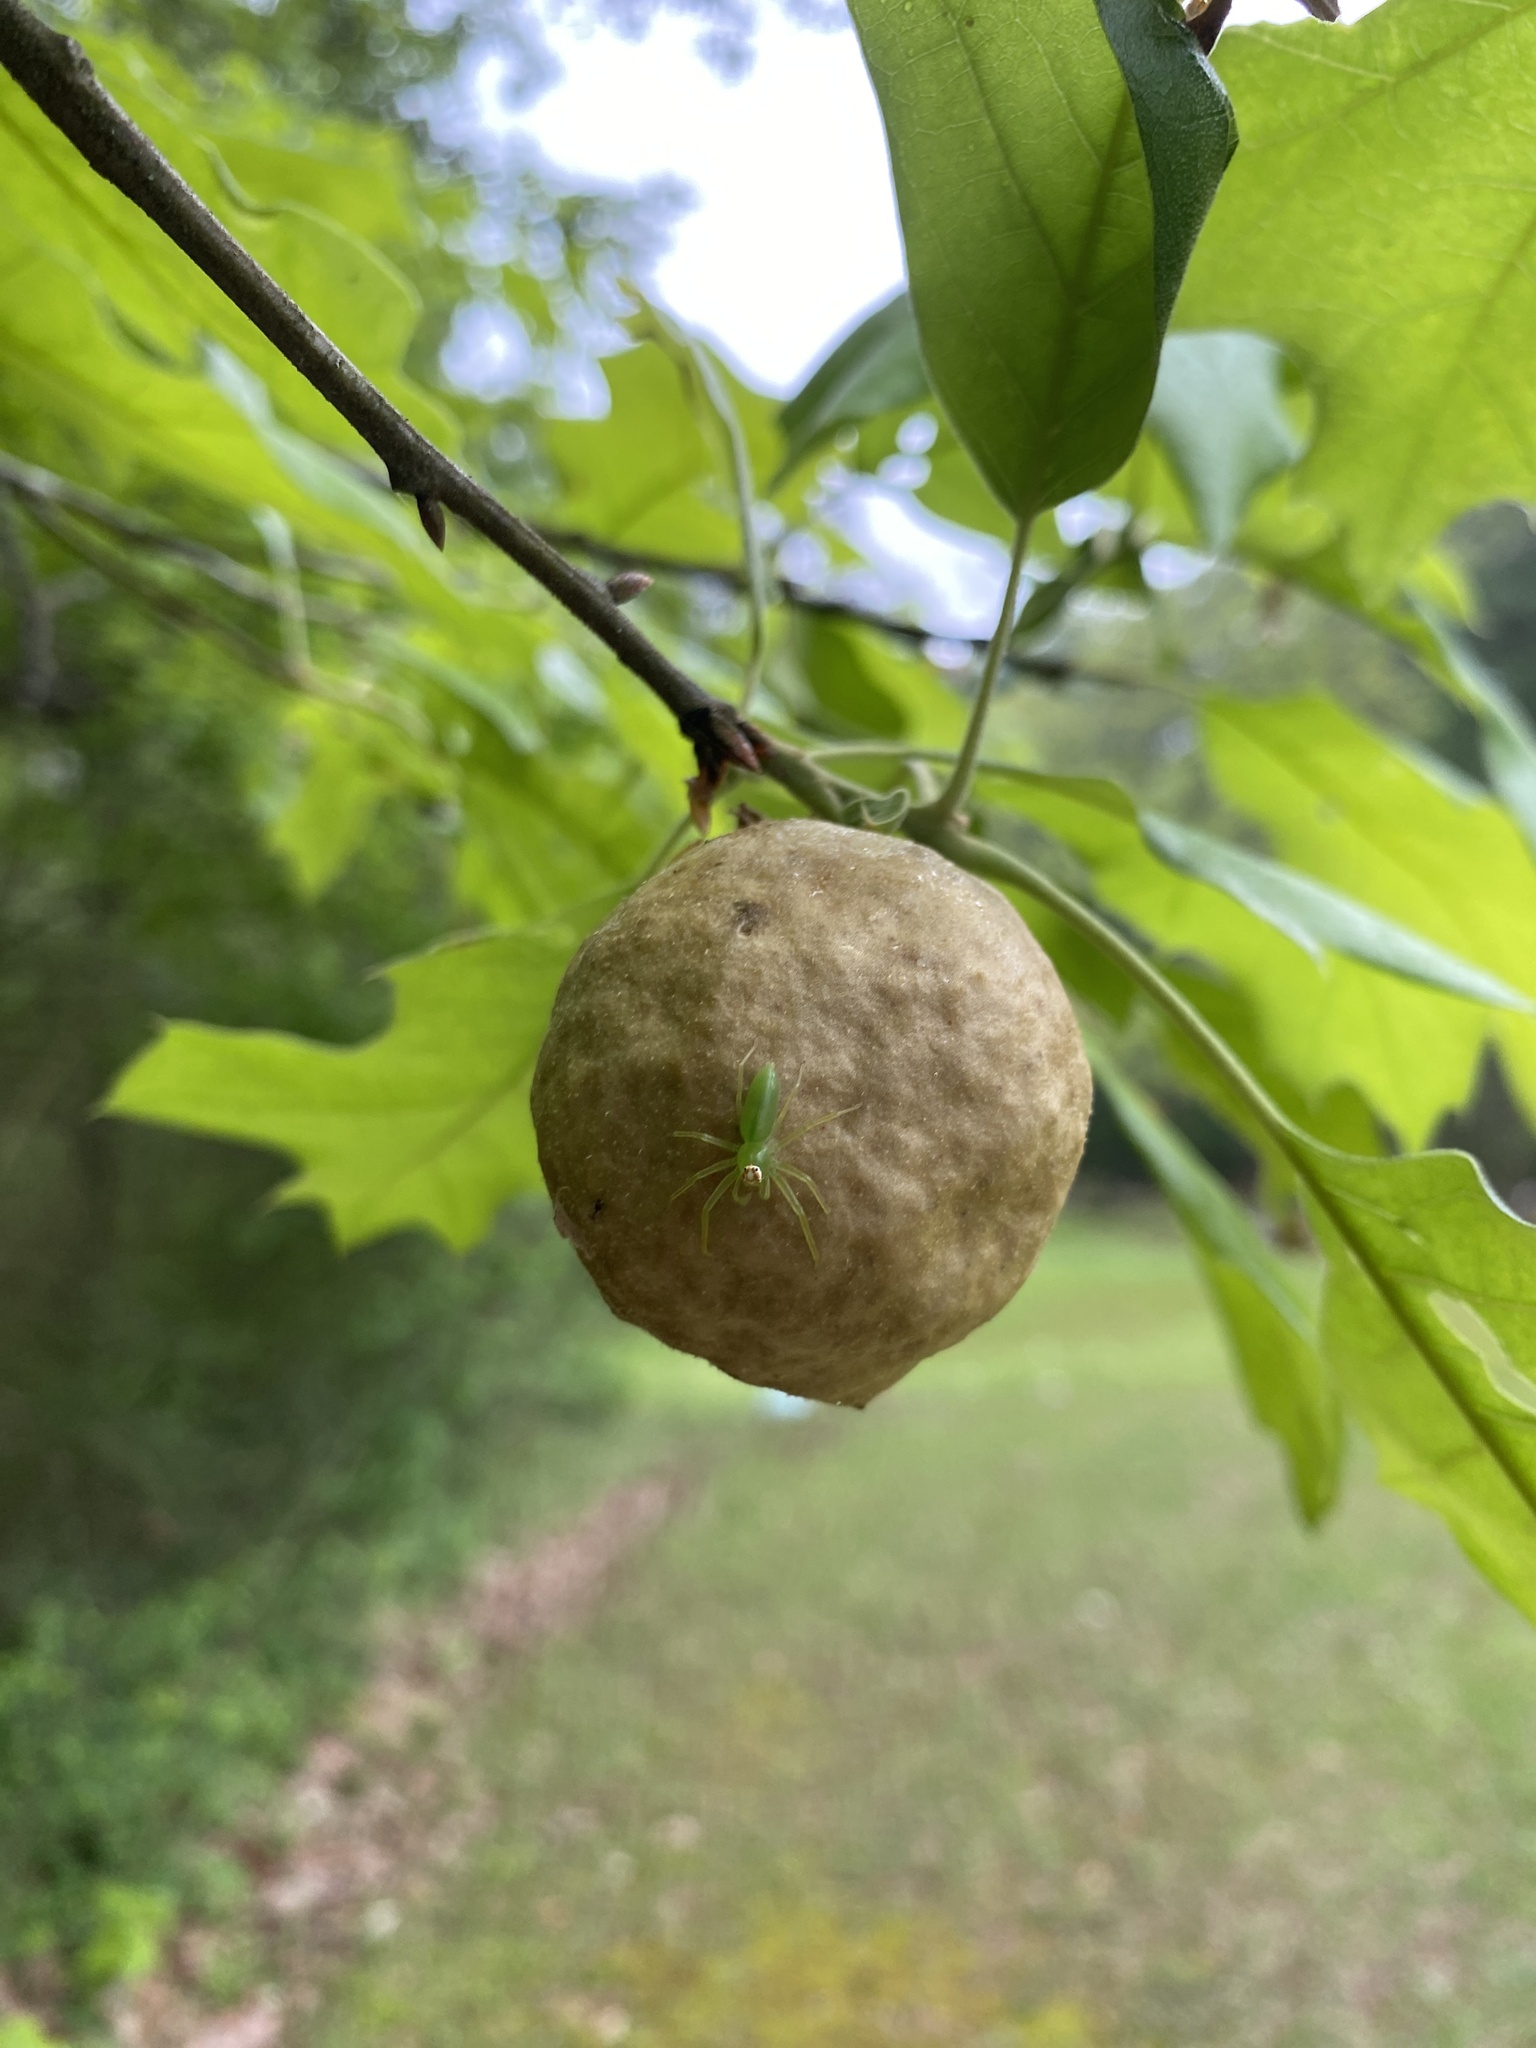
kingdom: Animalia
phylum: Arthropoda
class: Arachnida
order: Araneae
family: Salticidae
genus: Lyssomanes
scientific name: Lyssomanes viridis
